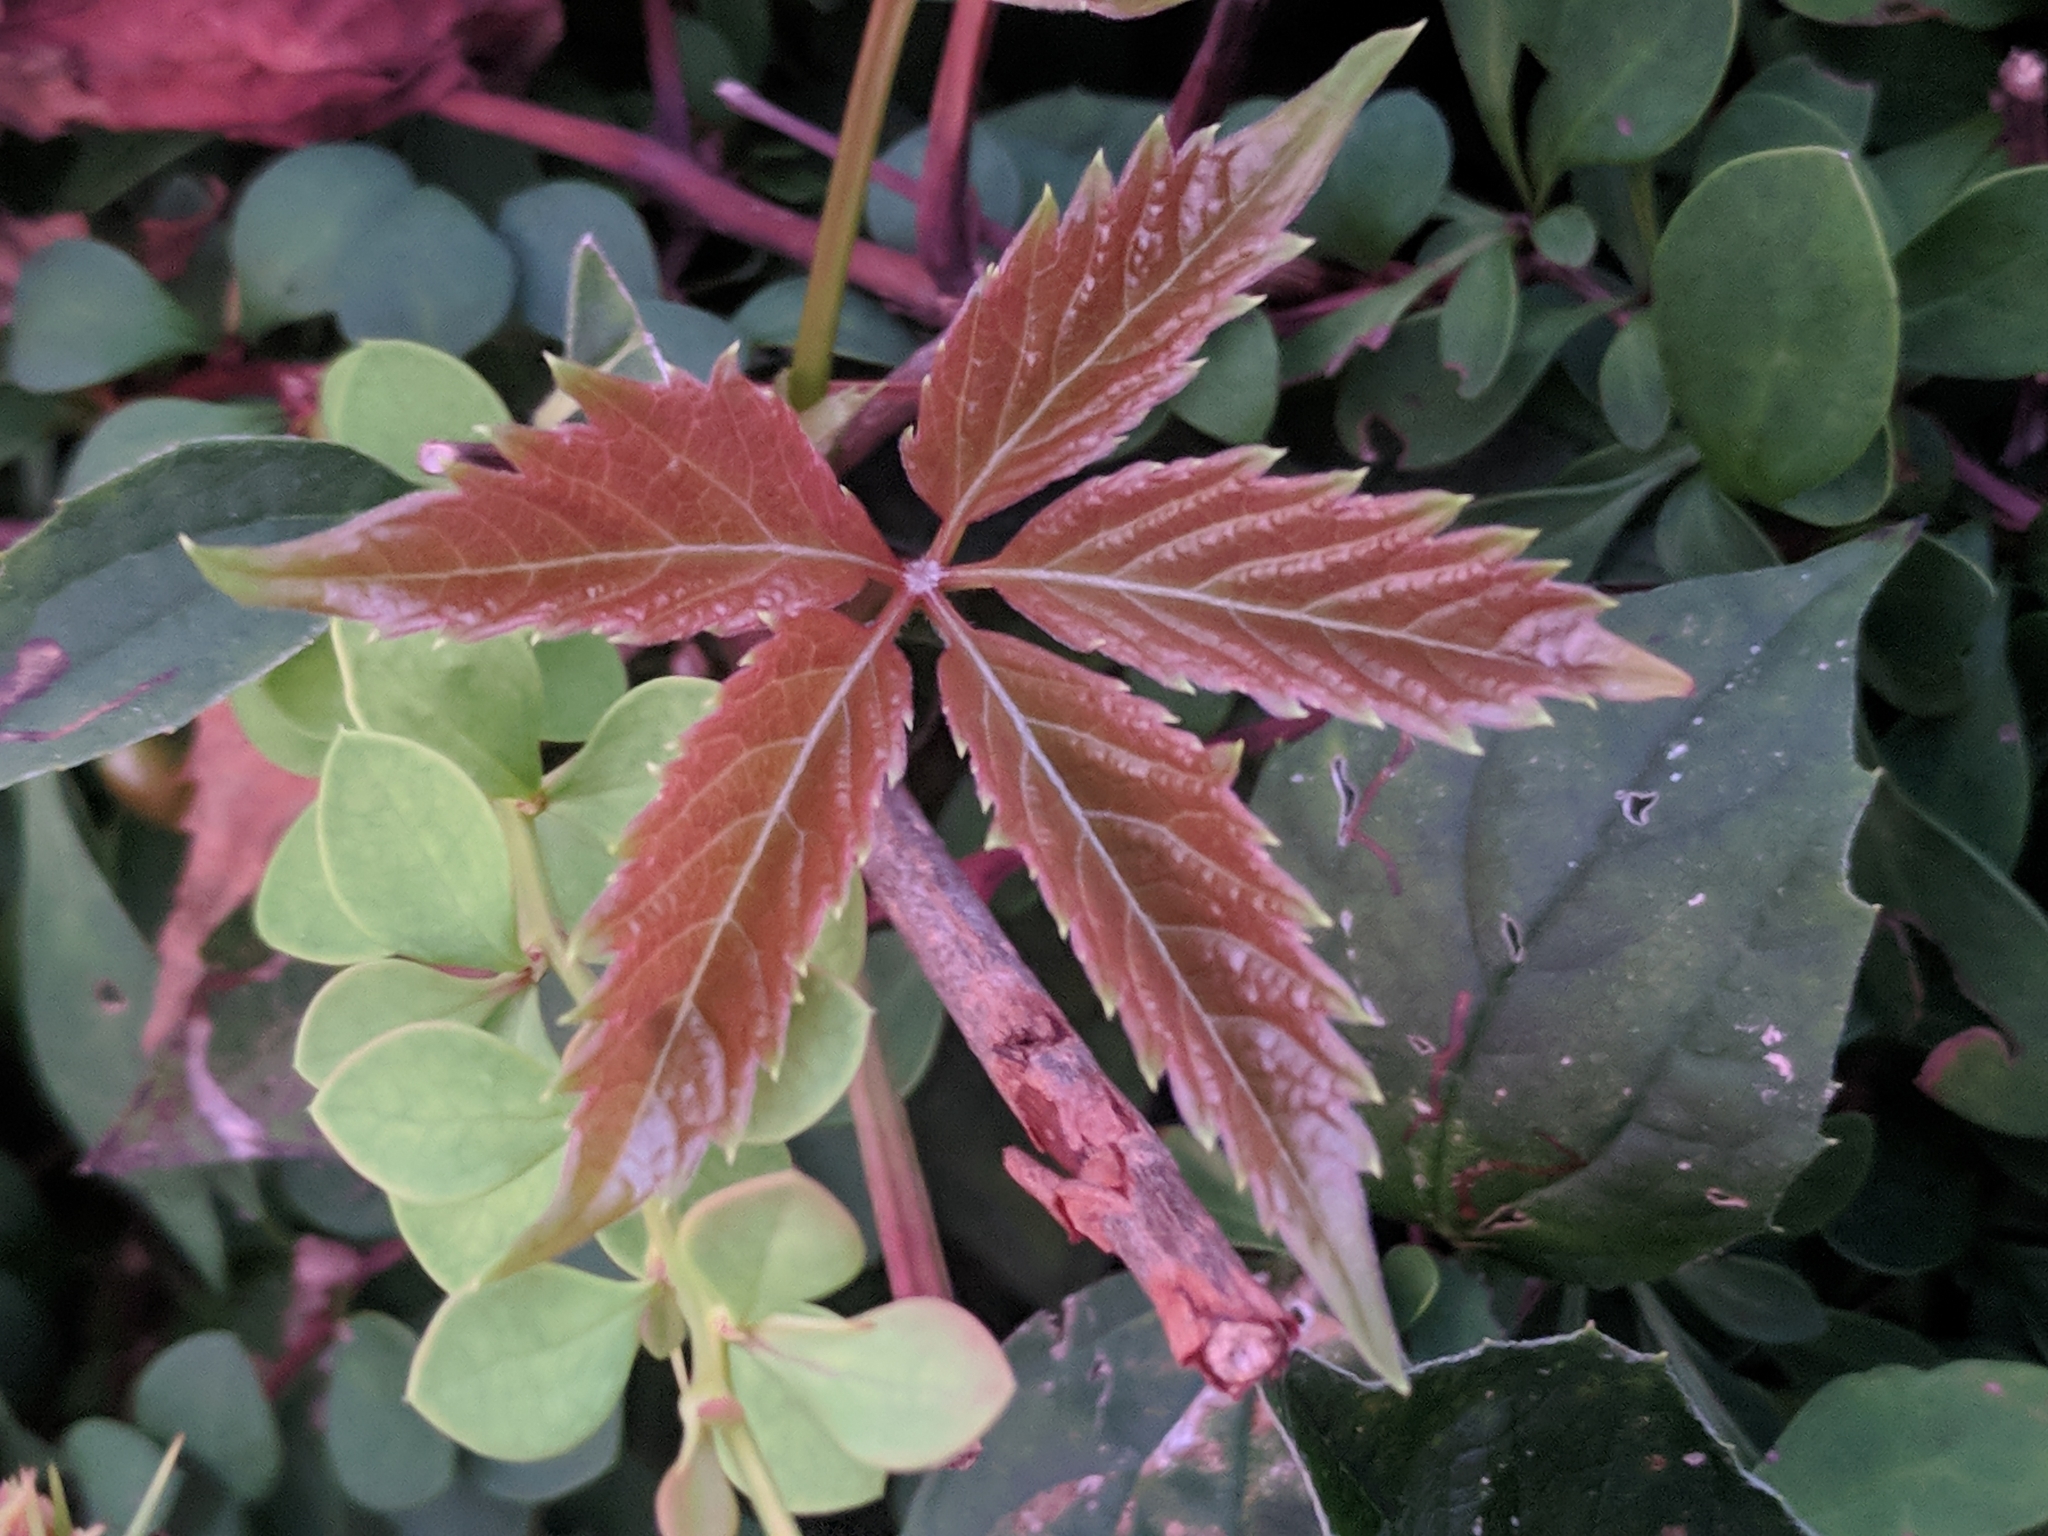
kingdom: Plantae
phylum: Tracheophyta
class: Magnoliopsida
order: Vitales
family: Vitaceae
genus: Parthenocissus
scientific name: Parthenocissus quinquefolia
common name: Virginia-creeper
